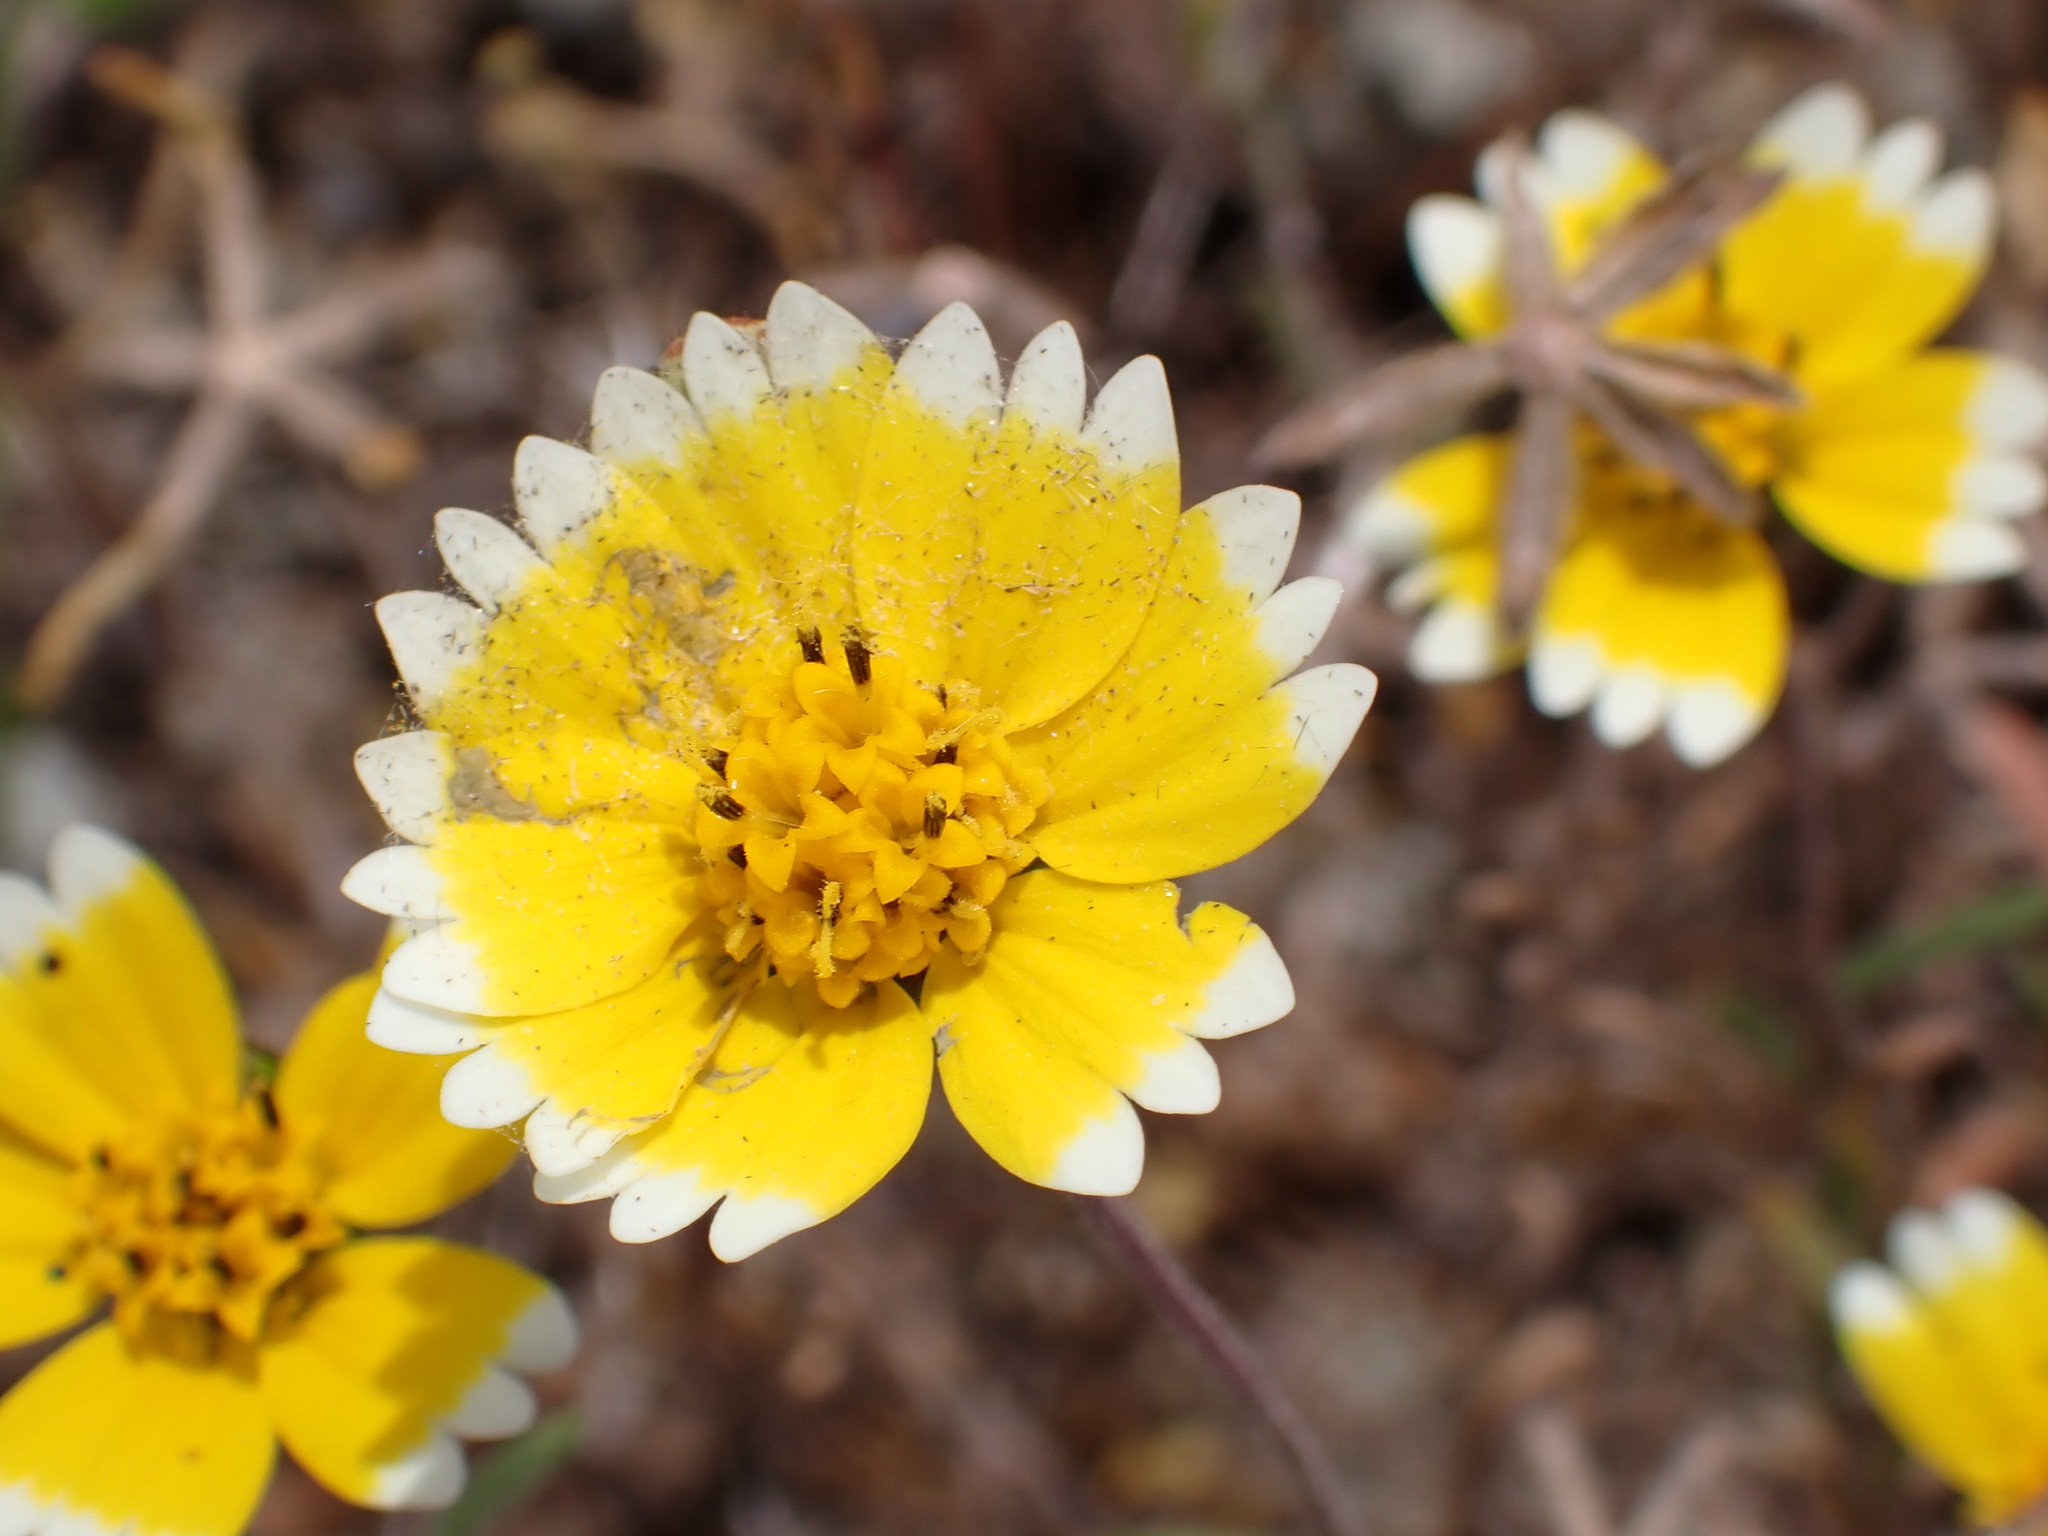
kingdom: Plantae
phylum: Tracheophyta
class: Magnoliopsida
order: Asterales
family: Asteraceae
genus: Layia
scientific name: Layia platyglossa
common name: Tidy-tips
